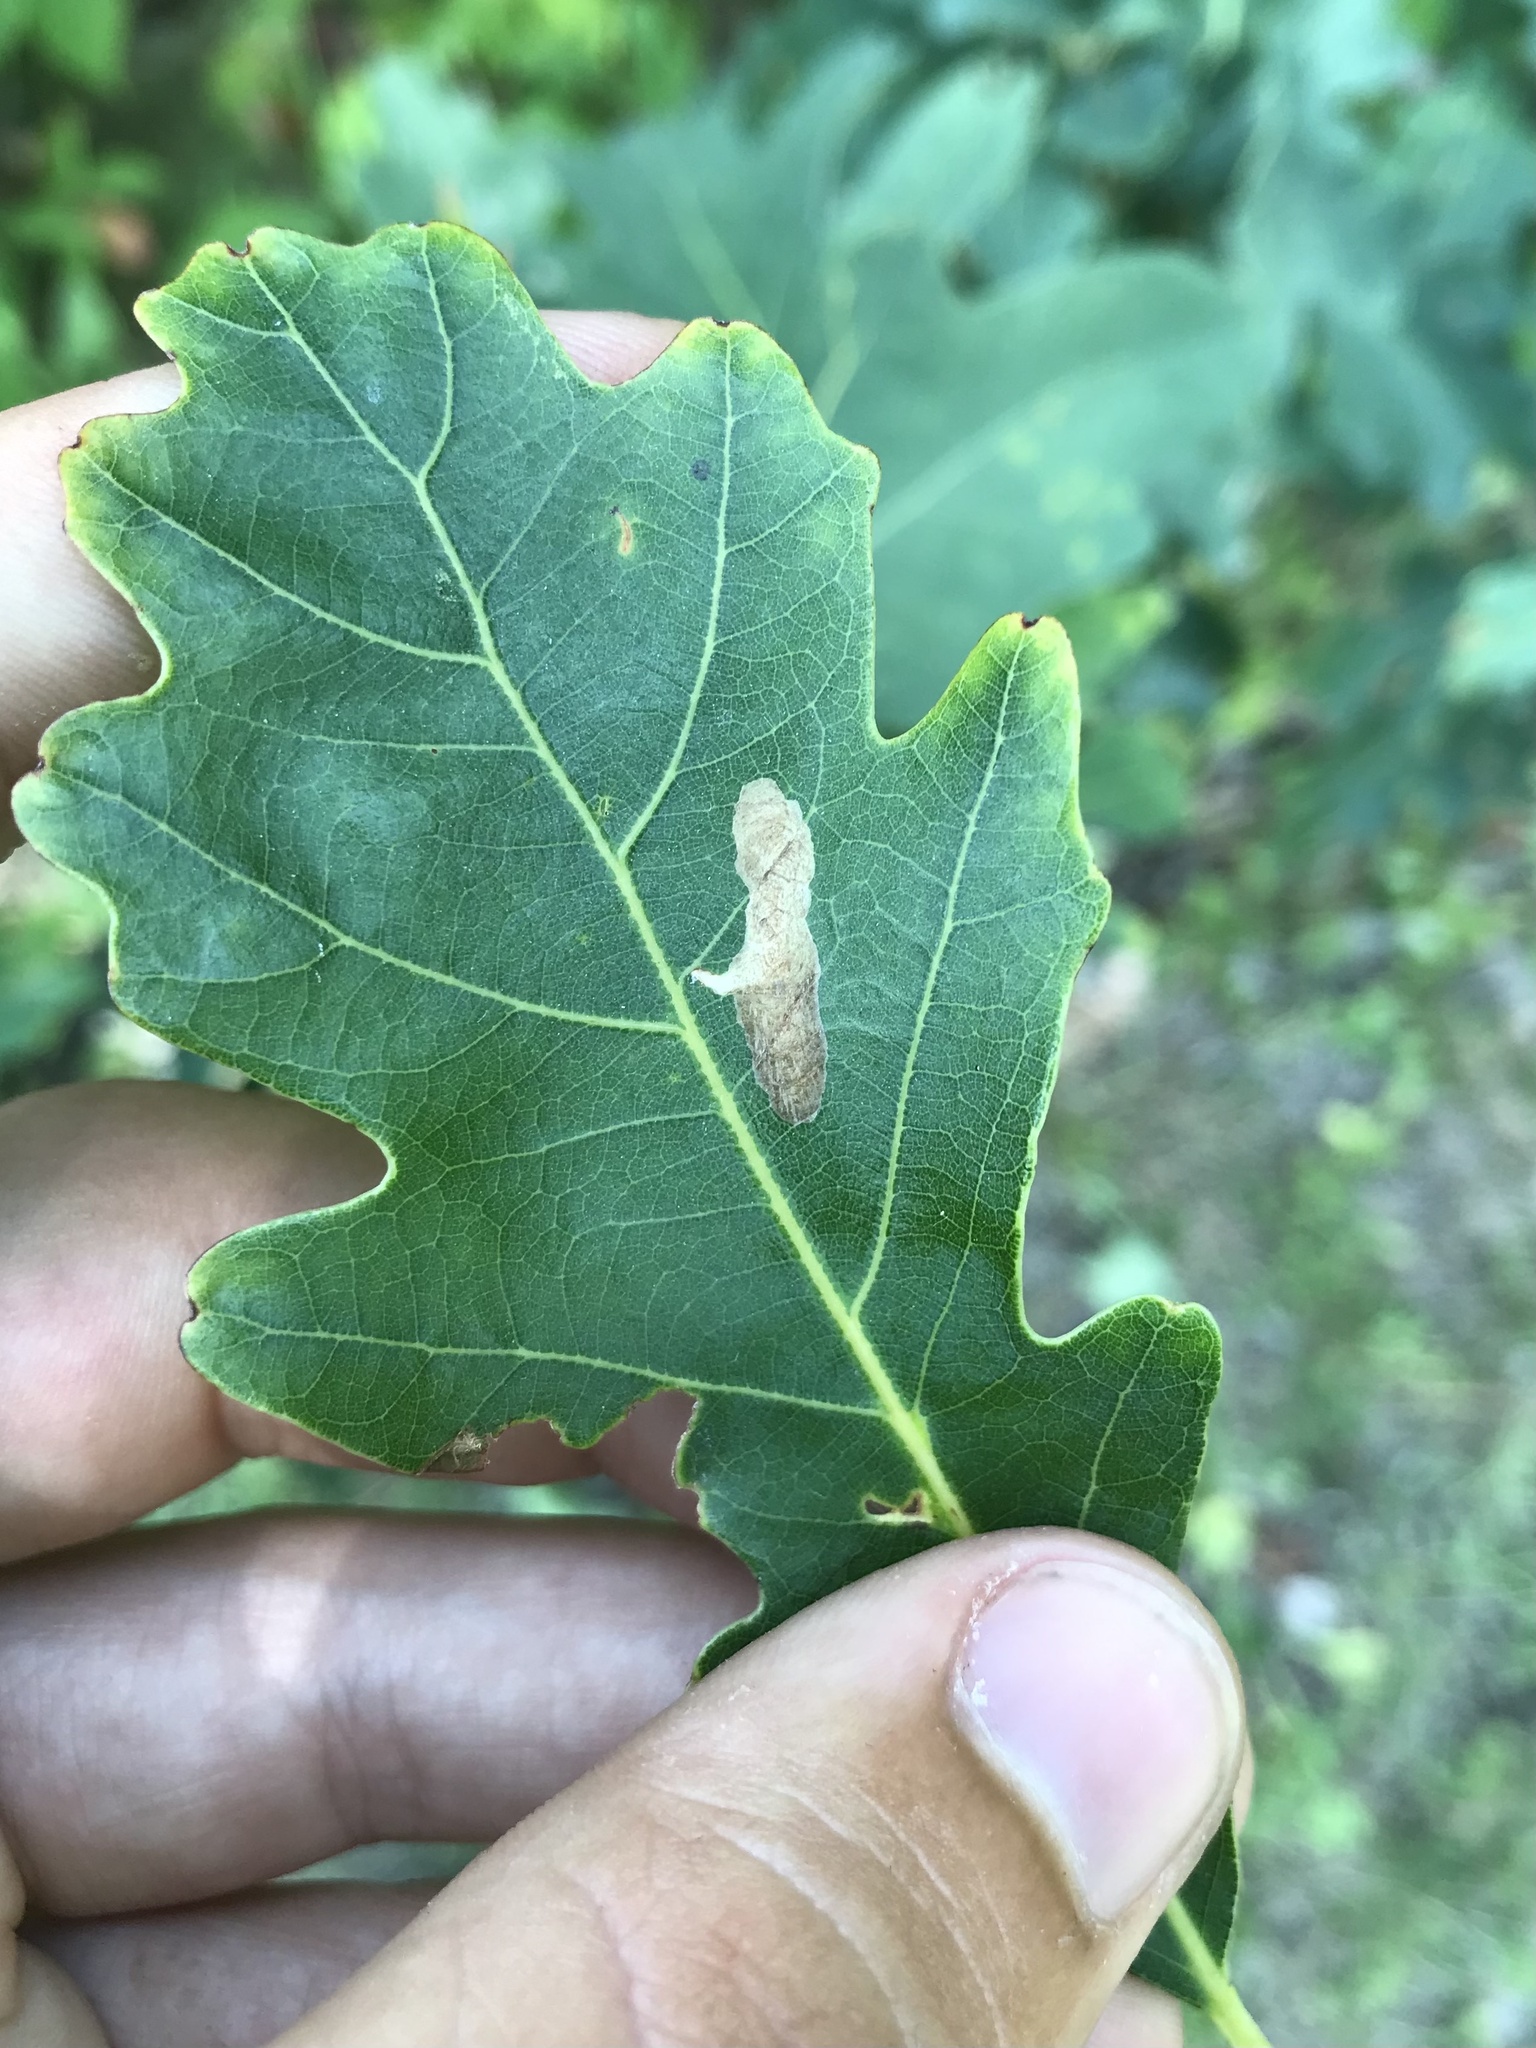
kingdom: Animalia
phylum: Arthropoda
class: Insecta
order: Lepidoptera
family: Tischeriidae
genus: Coptotriche
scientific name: Coptotriche badiiella
